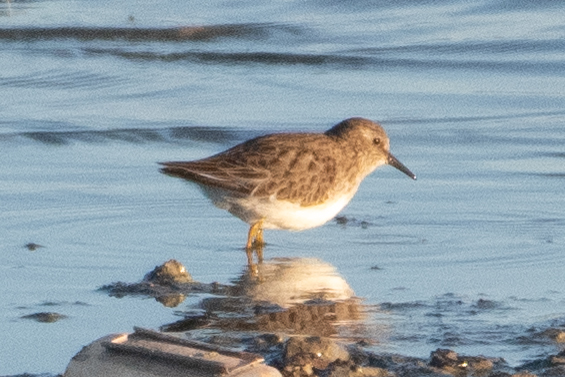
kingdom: Animalia
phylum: Chordata
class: Aves
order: Charadriiformes
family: Scolopacidae
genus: Calidris
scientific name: Calidris minutilla
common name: Least sandpiper
